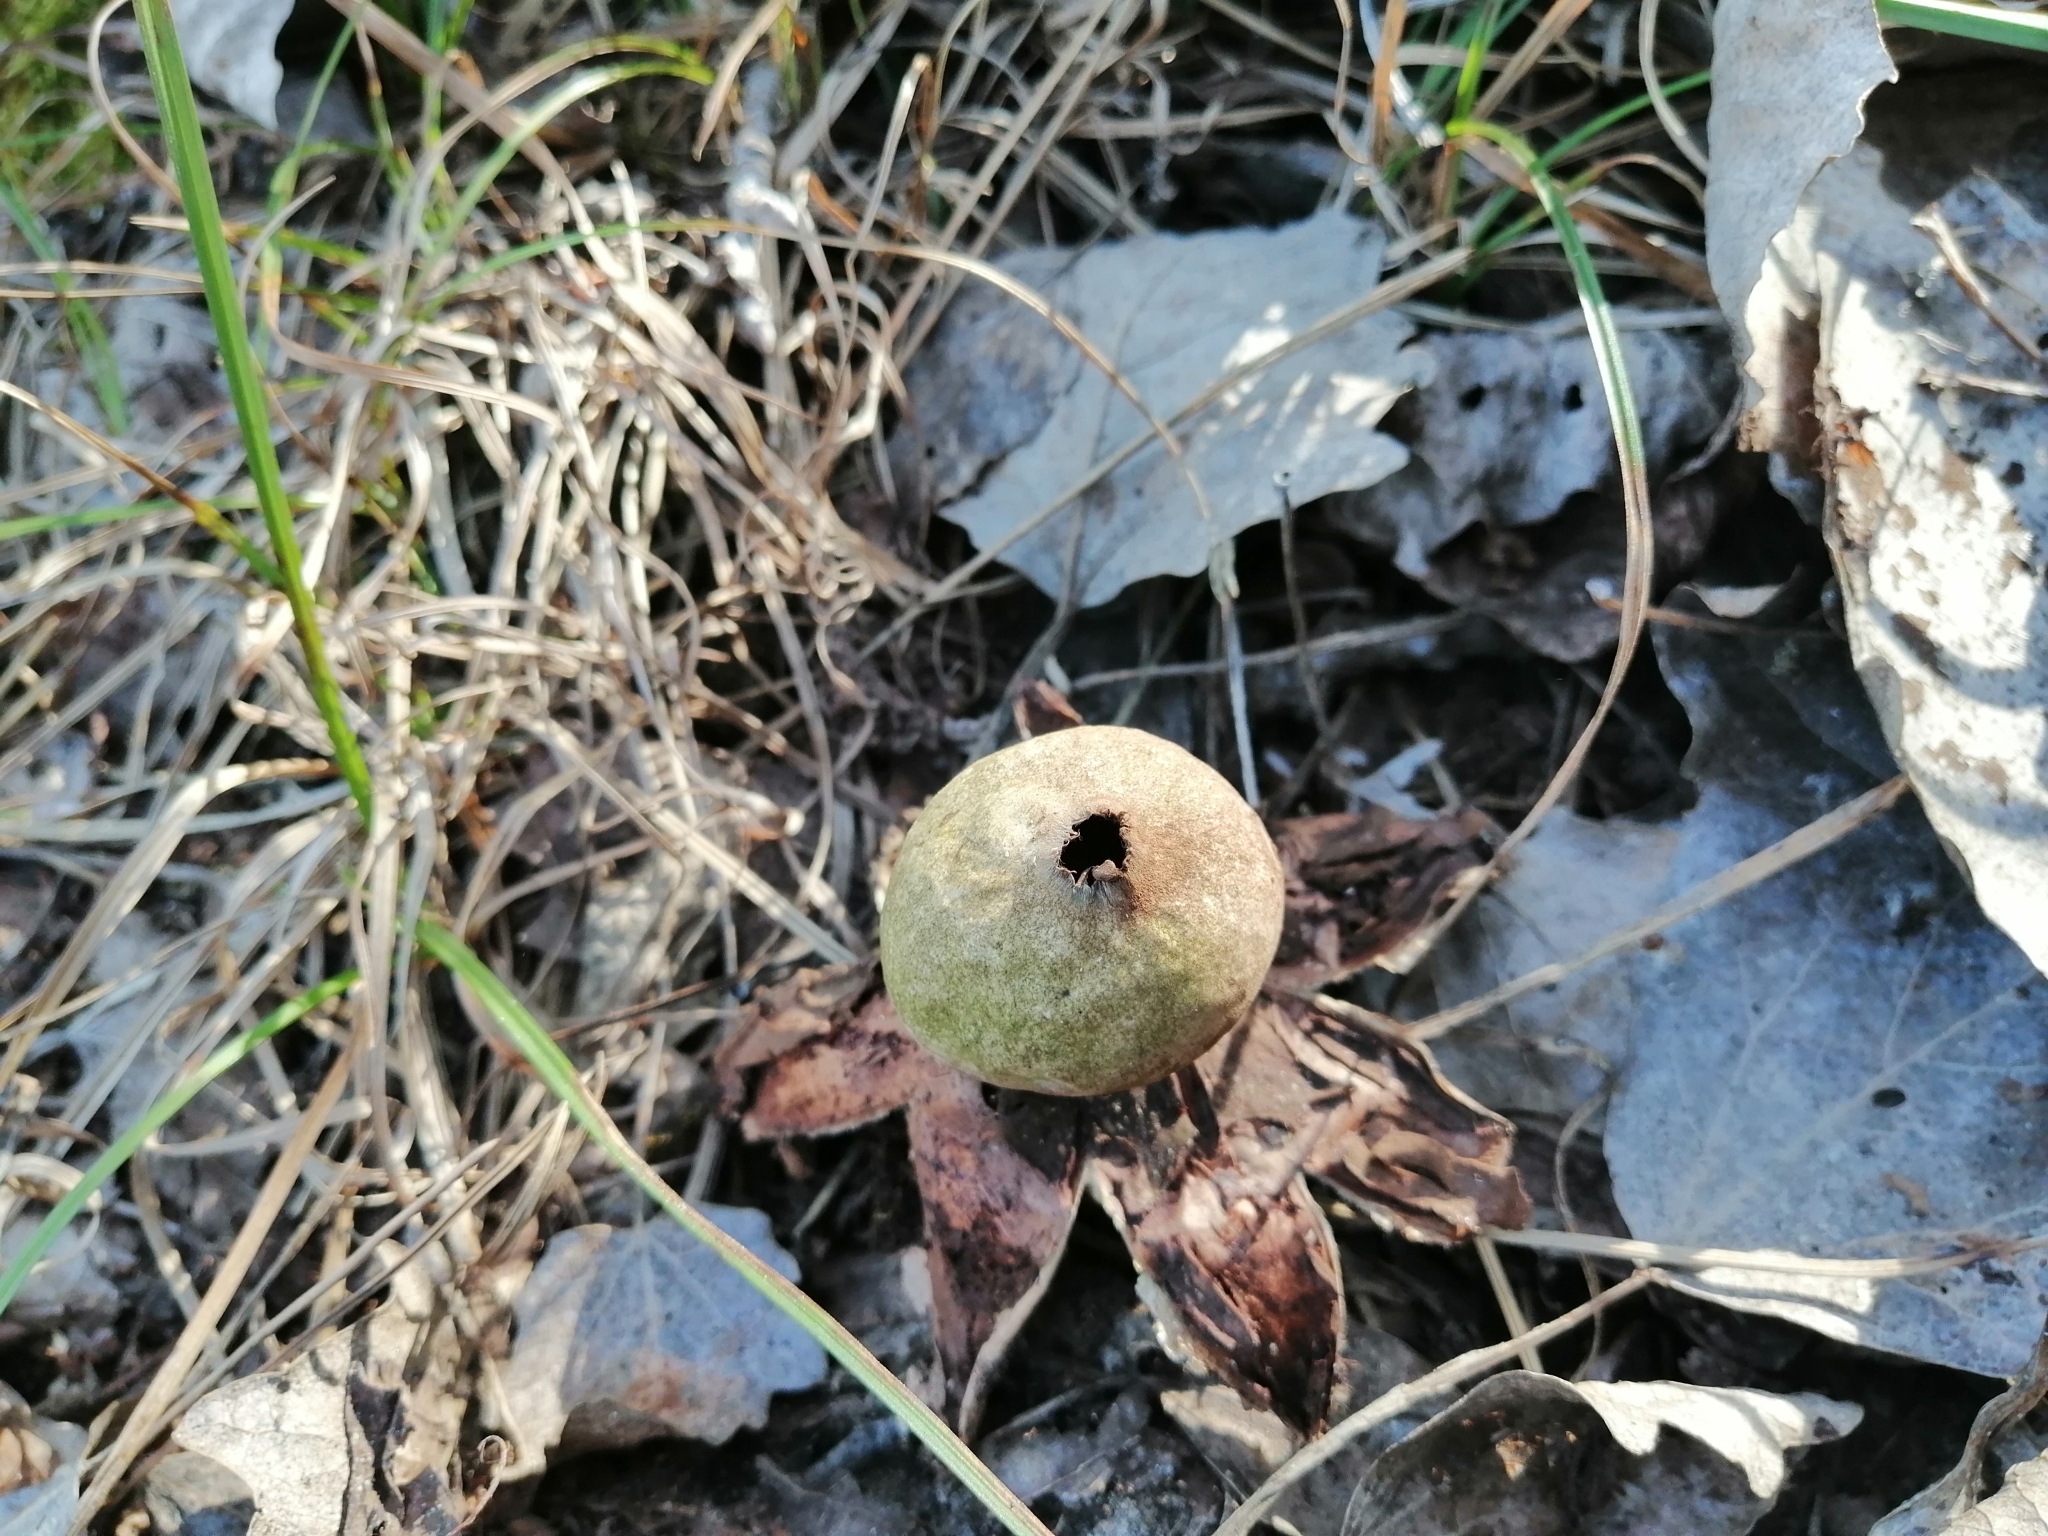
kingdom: Fungi
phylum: Basidiomycota
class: Agaricomycetes
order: Geastrales
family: Geastraceae
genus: Geastrum
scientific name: Geastrum rufescens
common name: Rosy earthstar
